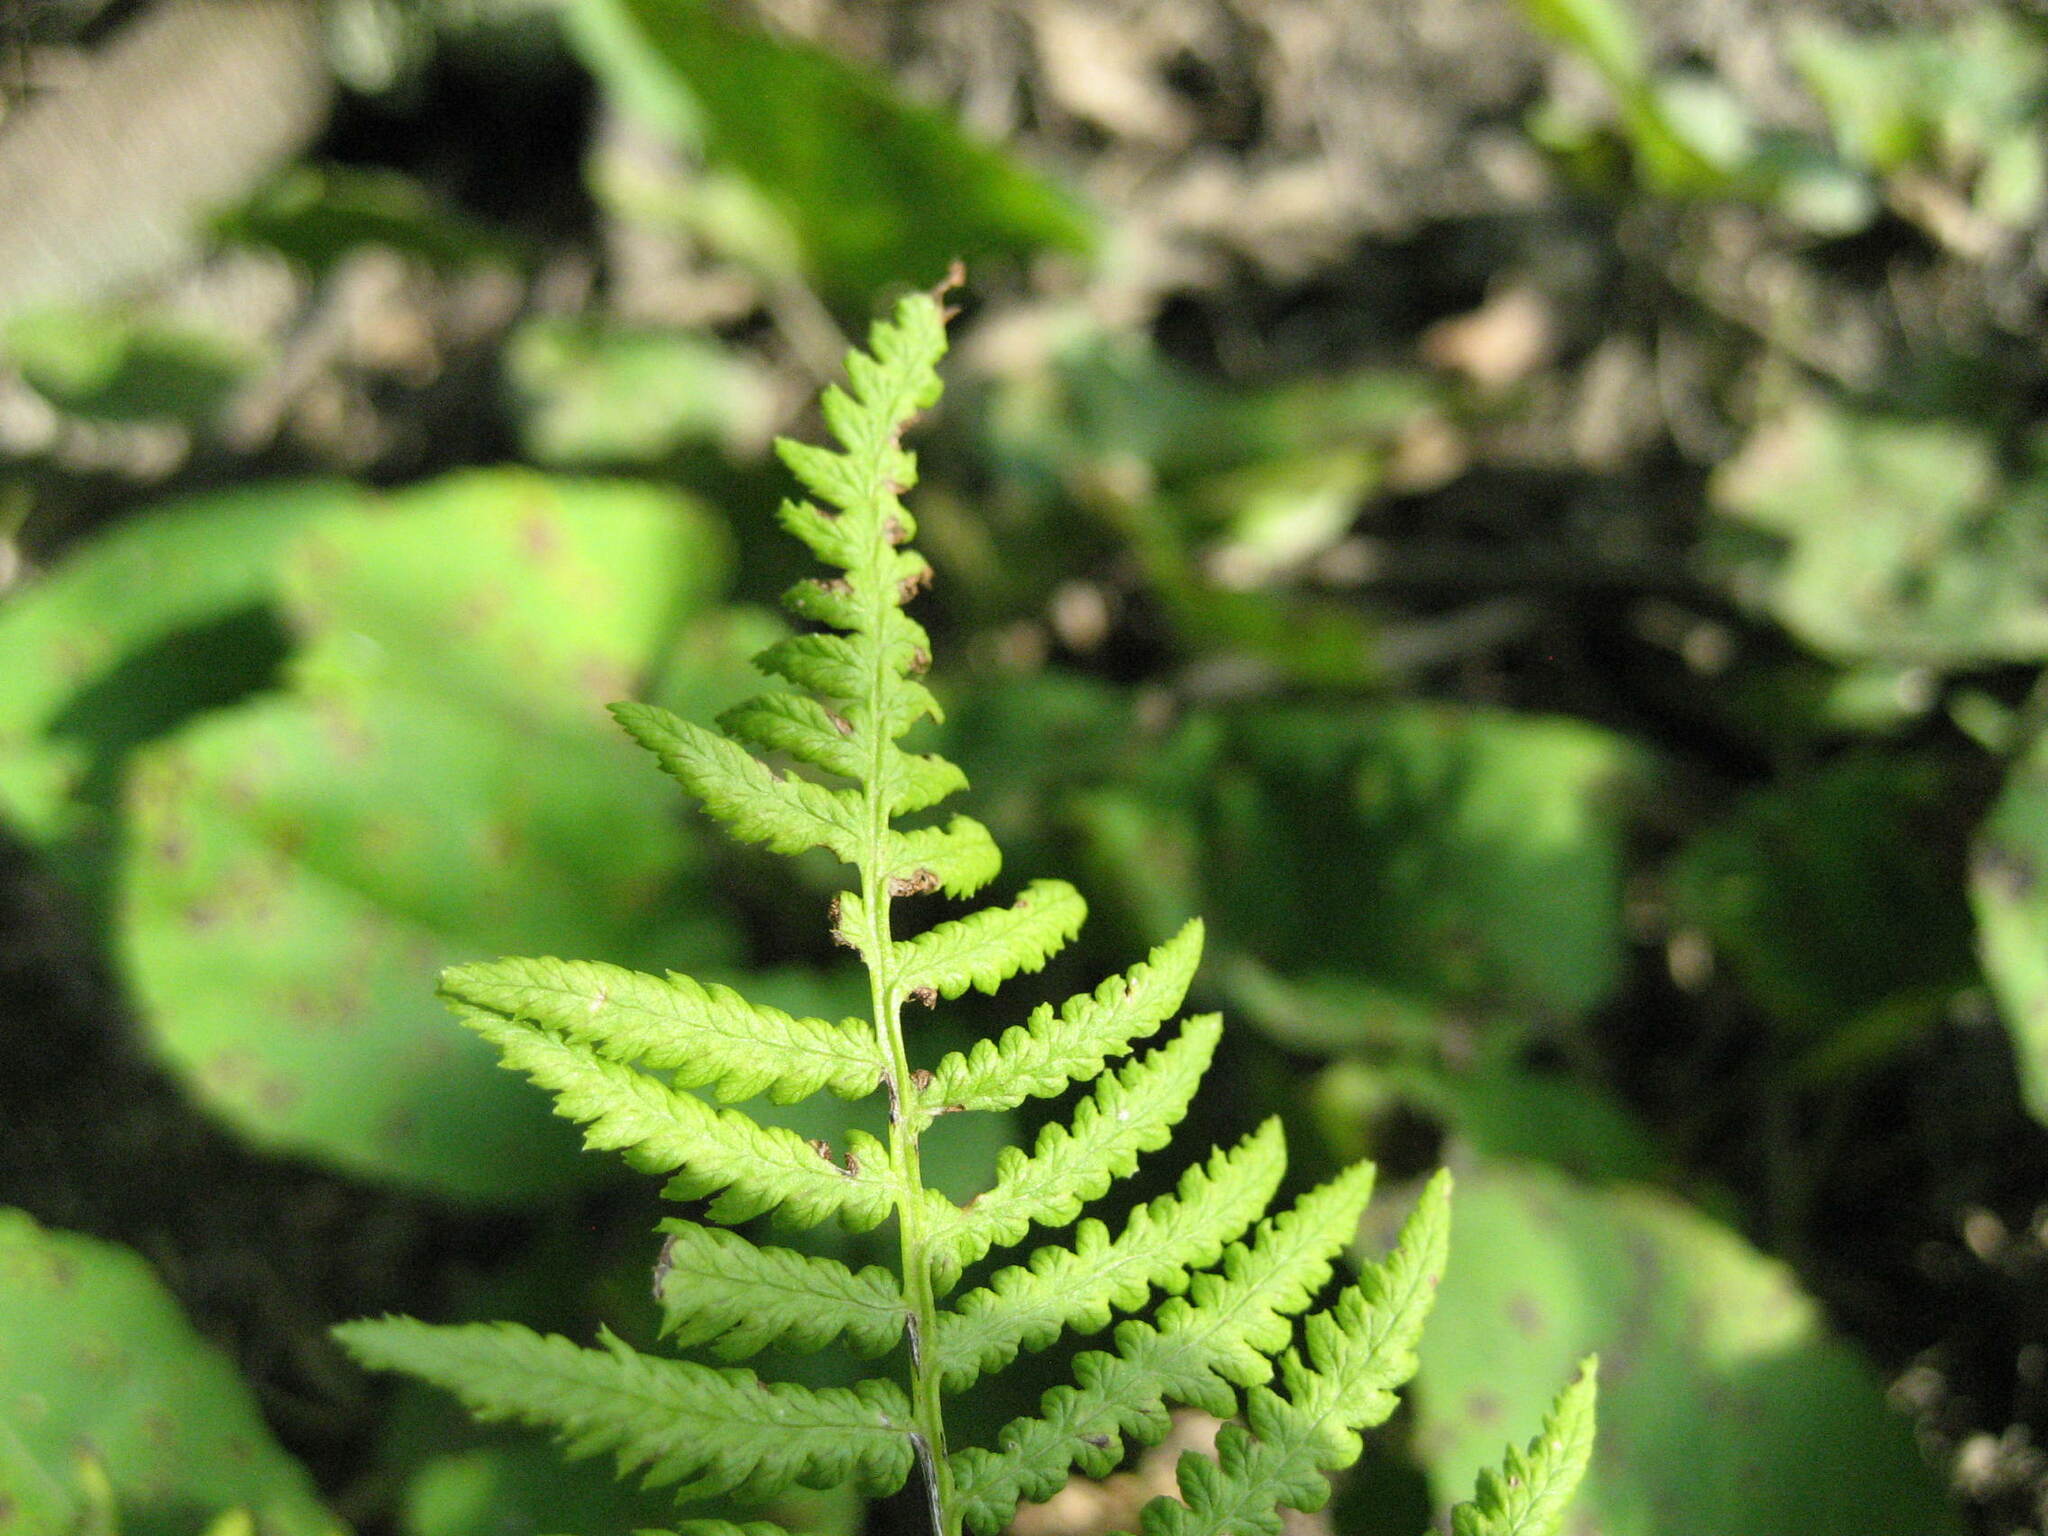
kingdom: Plantae
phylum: Tracheophyta
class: Polypodiopsida
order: Polypodiales
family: Athyriaceae
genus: Athyrium
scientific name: Athyrium angustum
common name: Northern lady fern
